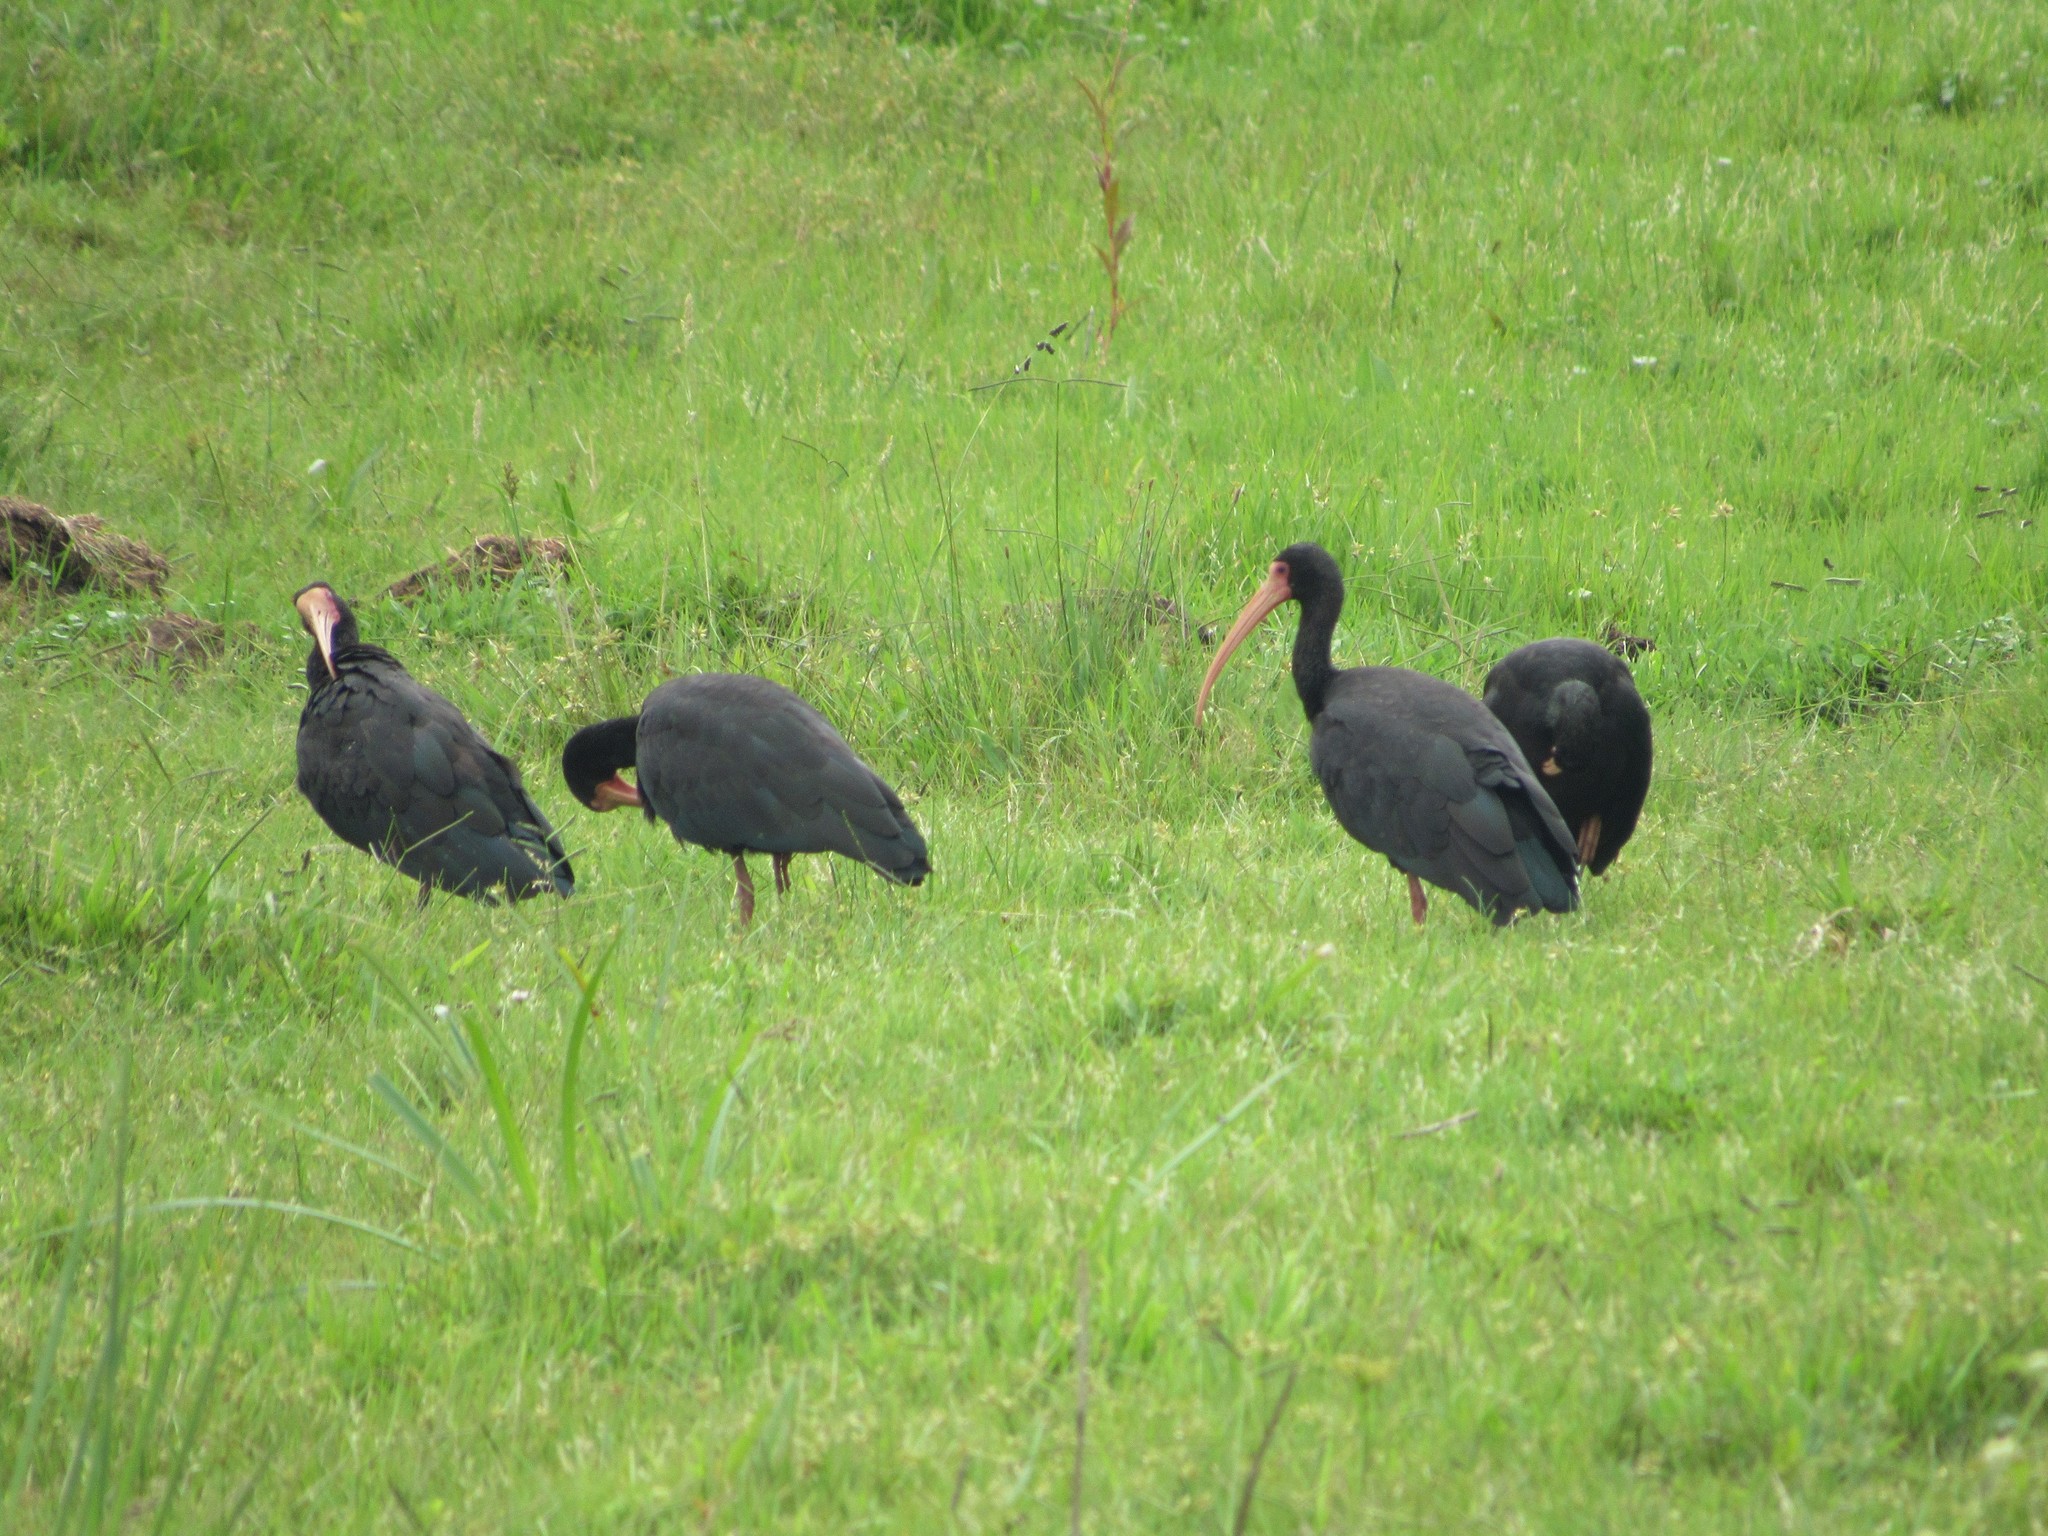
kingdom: Animalia
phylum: Chordata
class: Aves
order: Pelecaniformes
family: Threskiornithidae
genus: Phimosus
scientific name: Phimosus infuscatus
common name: Bare-faced ibis
